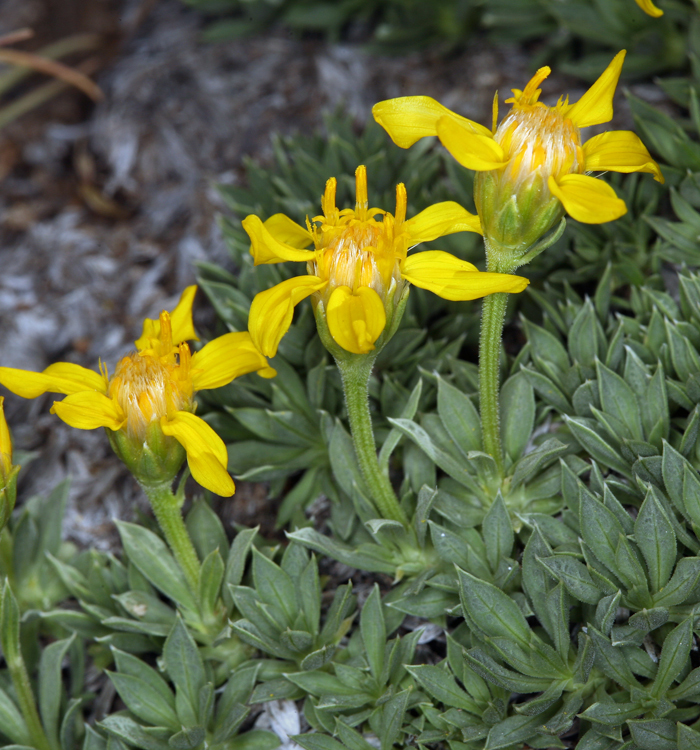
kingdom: Plantae
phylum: Tracheophyta
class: Magnoliopsida
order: Asterales
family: Asteraceae
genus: Stenotus
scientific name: Stenotus acaulis
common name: Stemless goldenweed
